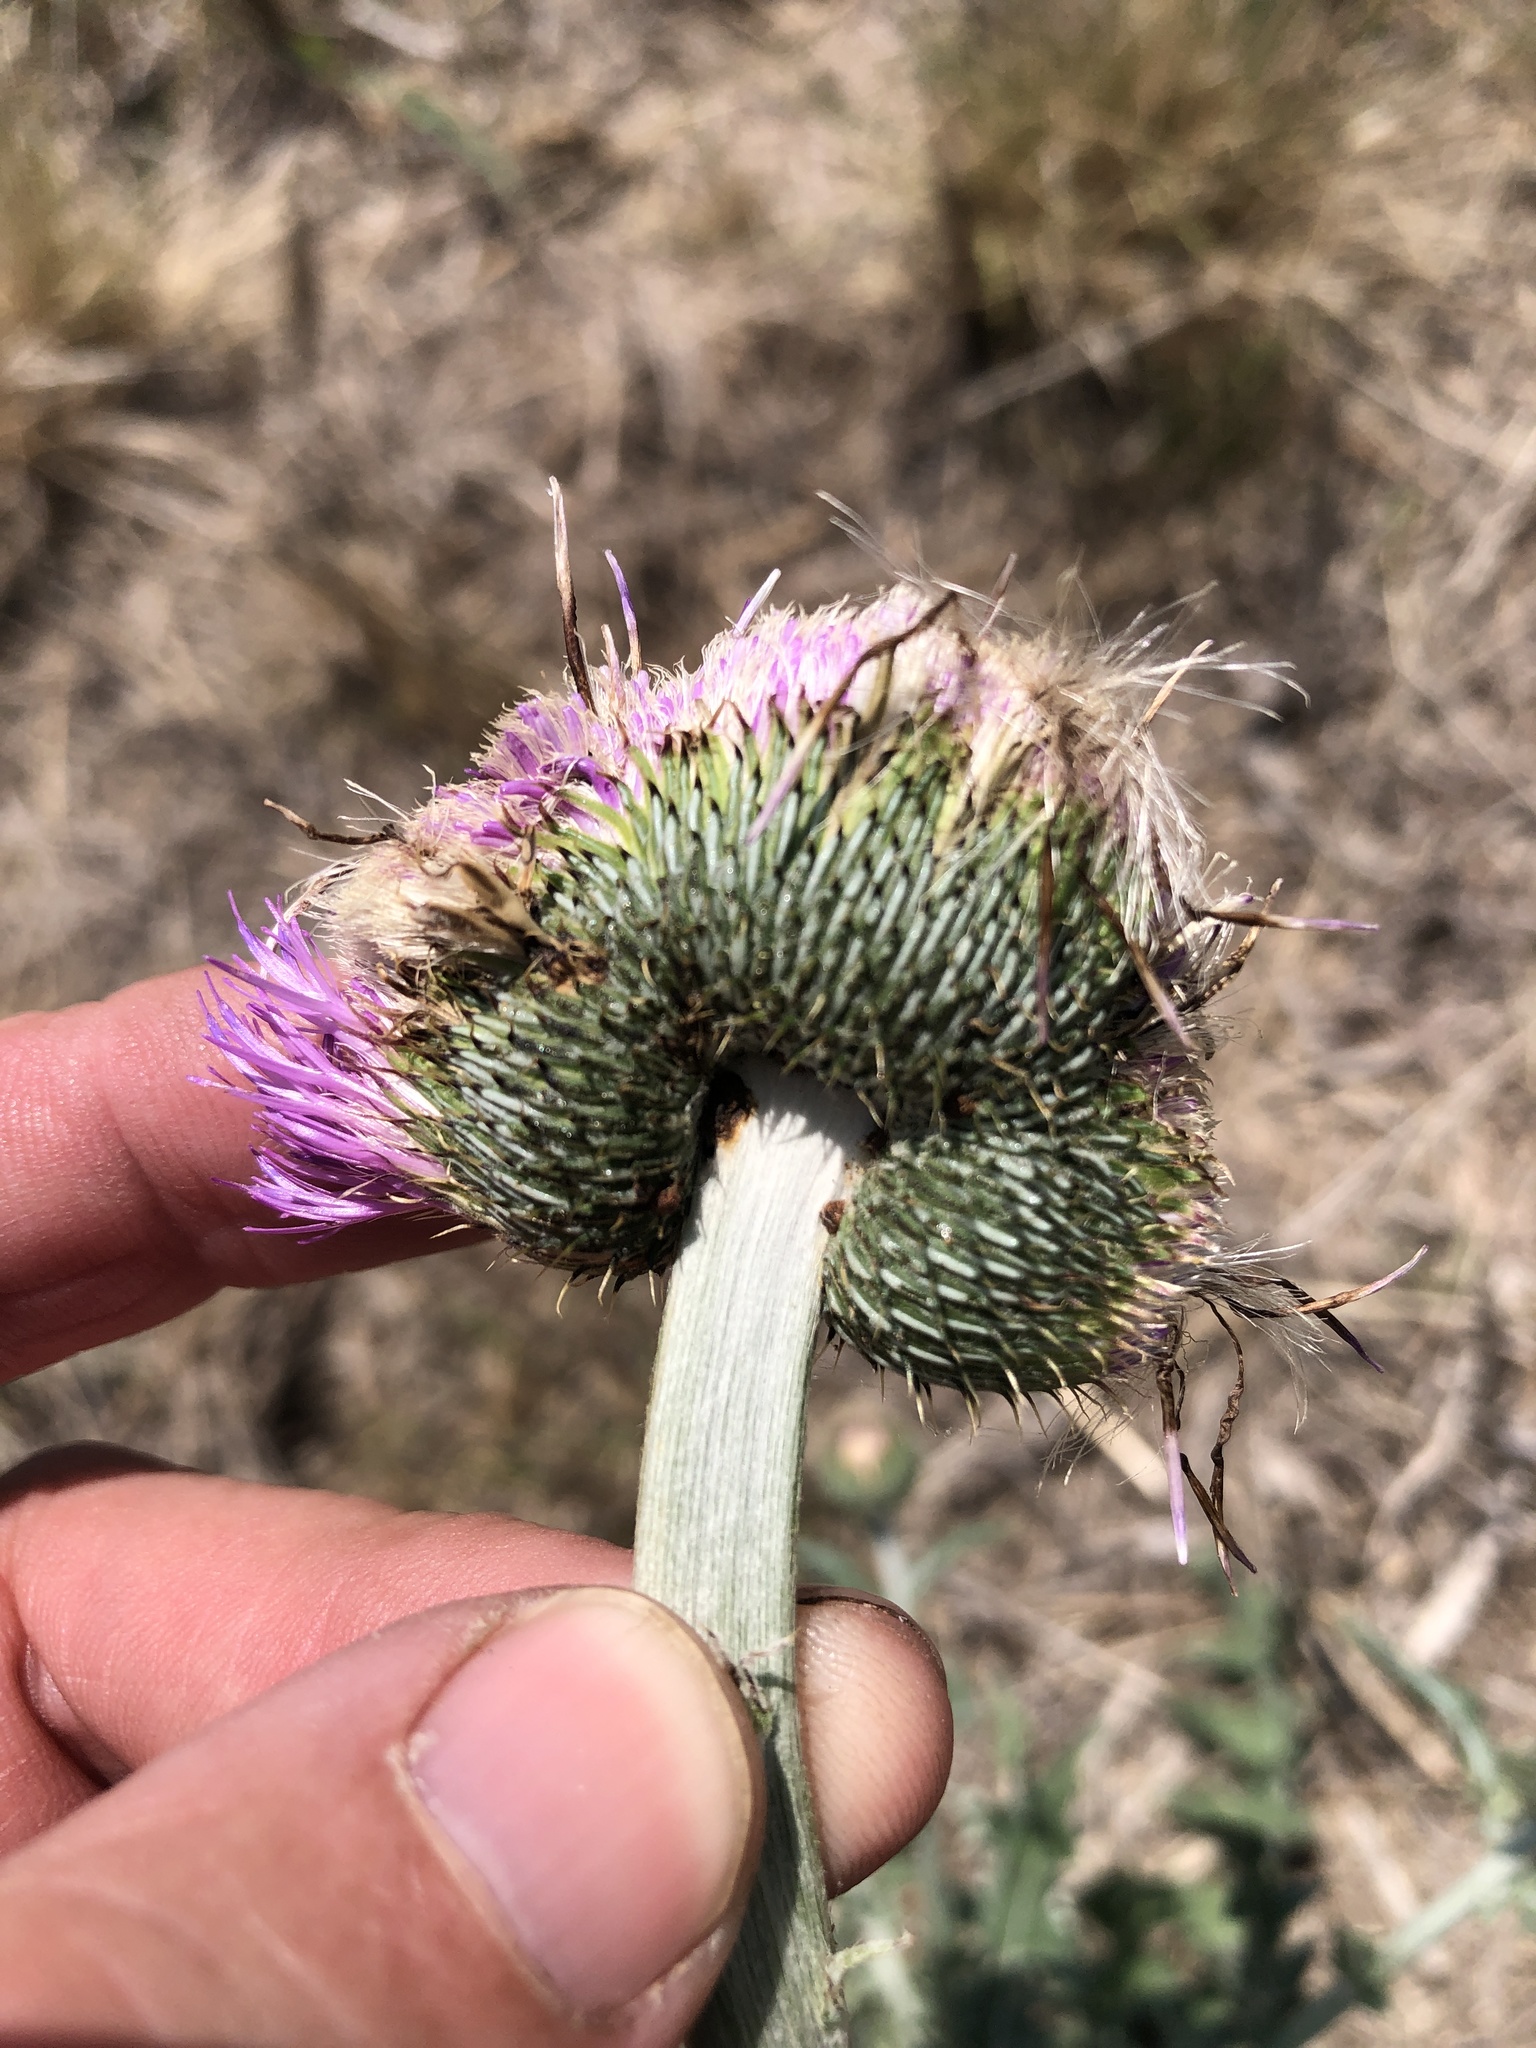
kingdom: Plantae
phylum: Tracheophyta
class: Magnoliopsida
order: Asterales
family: Asteraceae
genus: Cirsium
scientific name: Cirsium texanum
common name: Texas purple thistle
